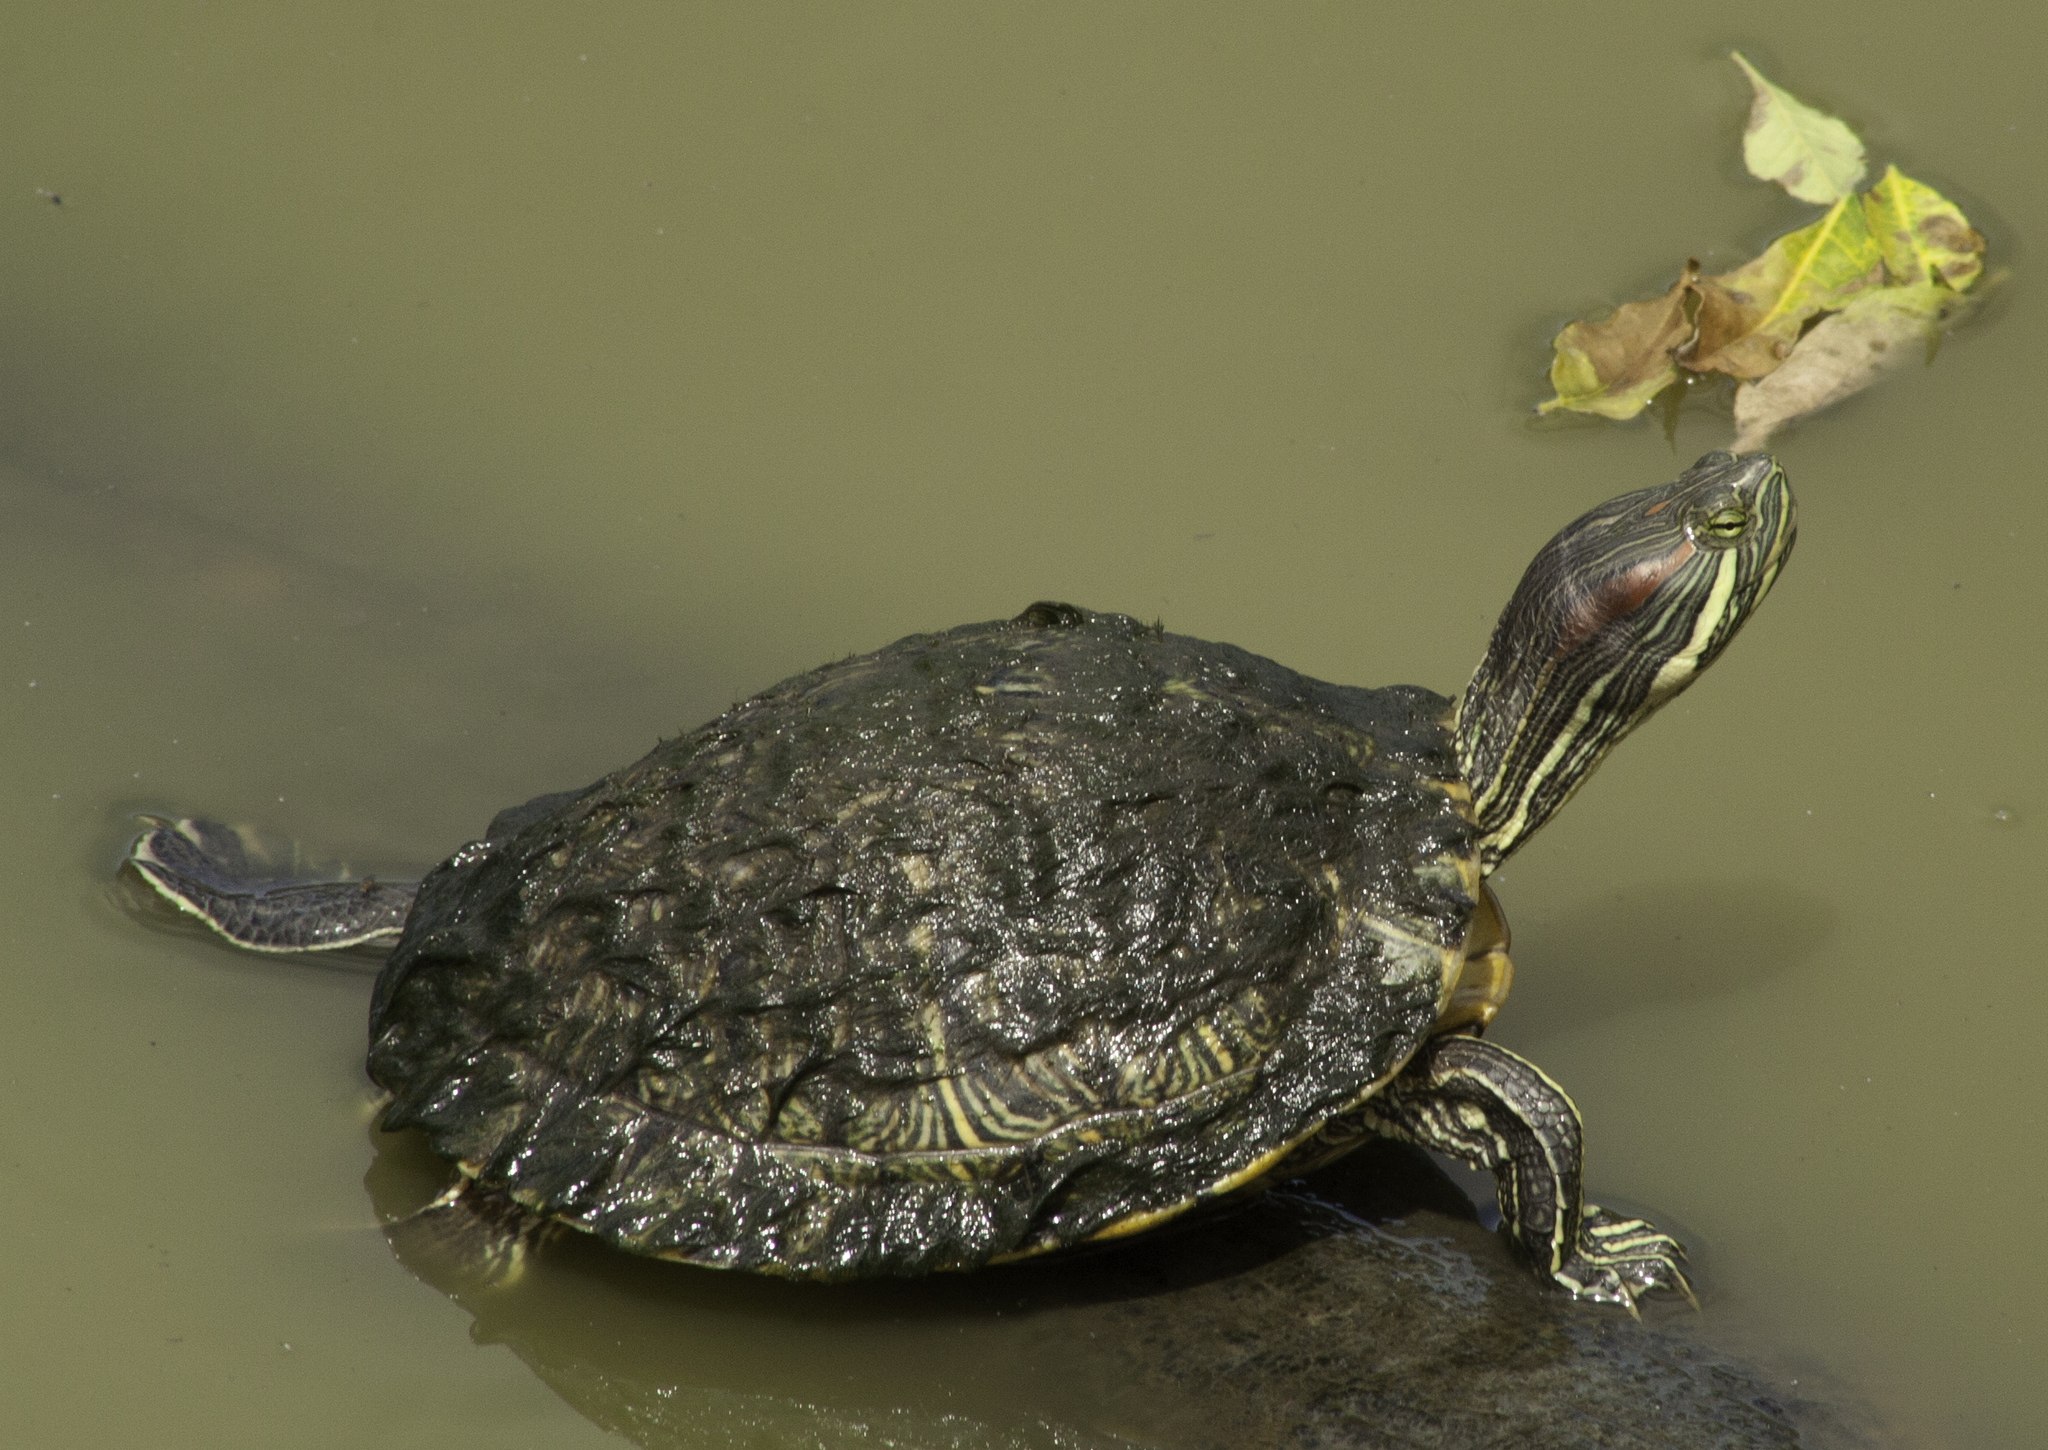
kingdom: Animalia
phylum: Chordata
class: Testudines
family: Emydidae
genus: Trachemys
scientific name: Trachemys scripta
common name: Slider
